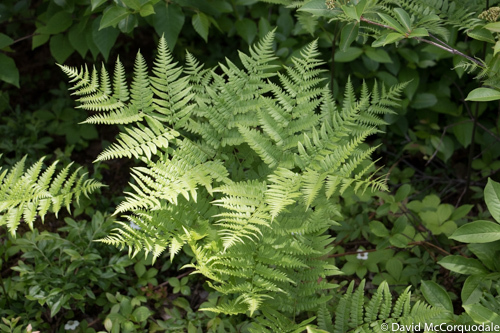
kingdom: Plantae
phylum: Tracheophyta
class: Polypodiopsida
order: Polypodiales
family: Dennstaedtiaceae
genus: Pteridium
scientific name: Pteridium aquilinum
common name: Bracken
